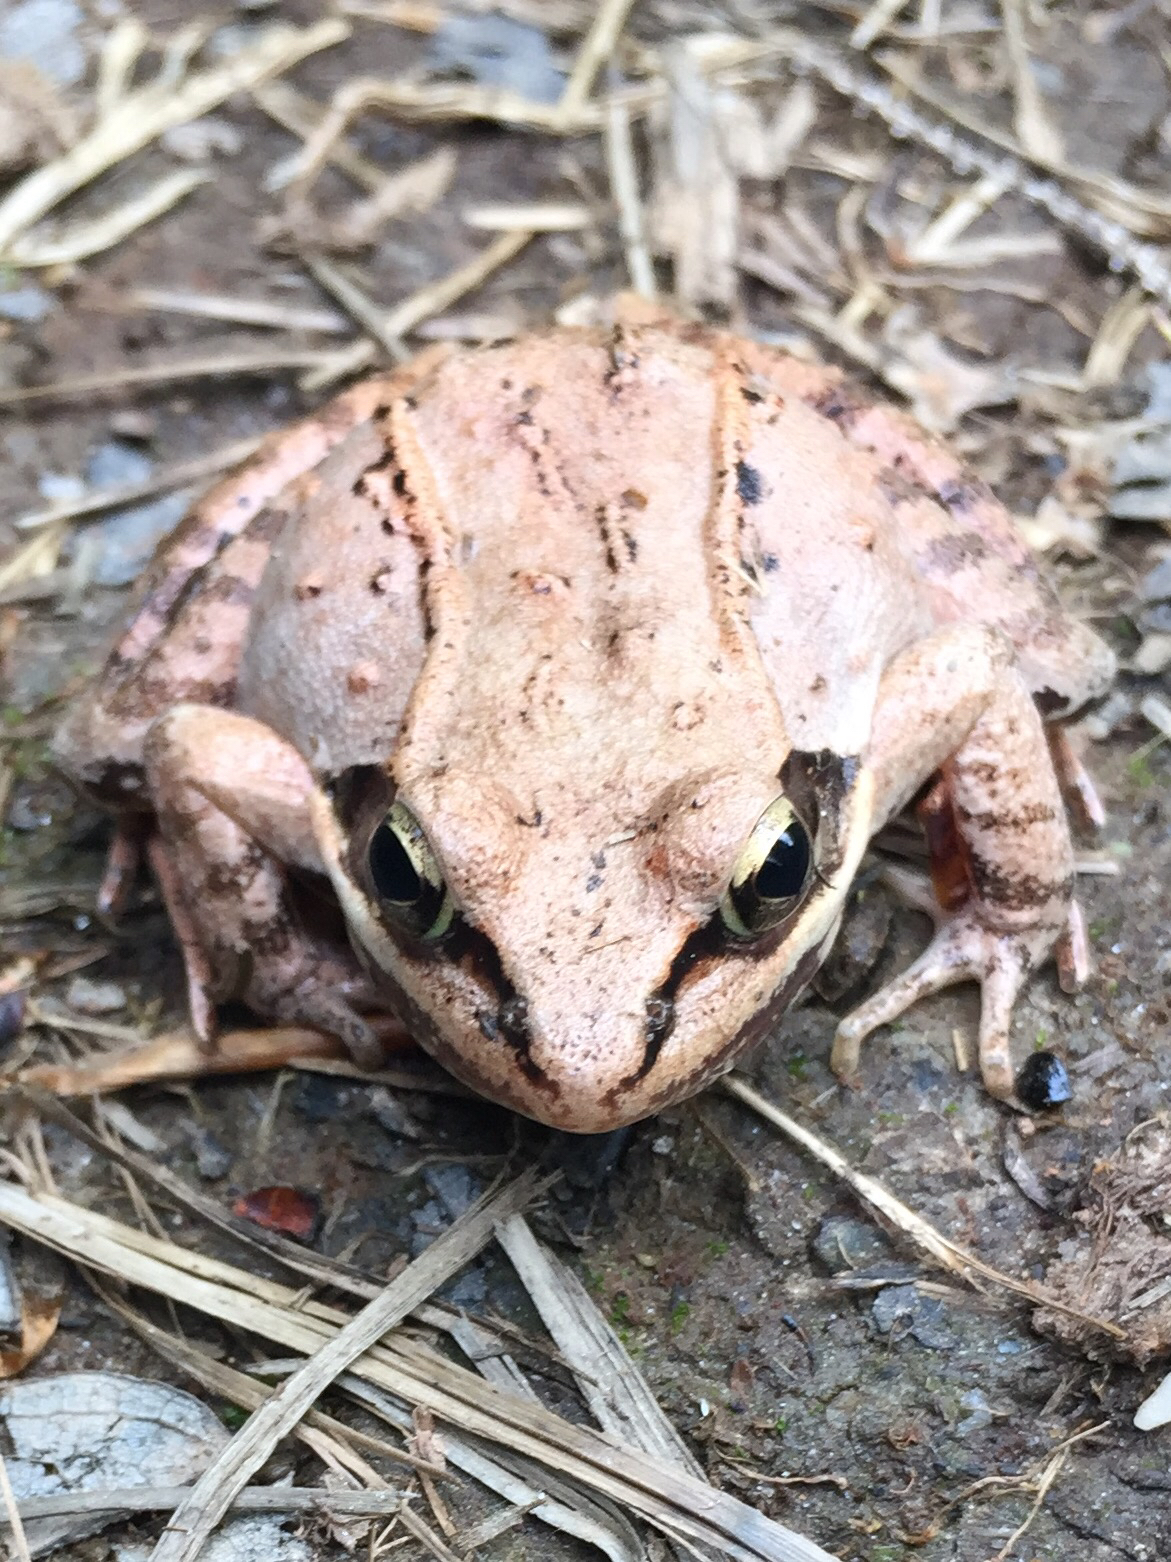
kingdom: Animalia
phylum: Chordata
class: Amphibia
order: Anura
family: Ranidae
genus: Lithobates
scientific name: Lithobates sylvaticus
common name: Wood frog
